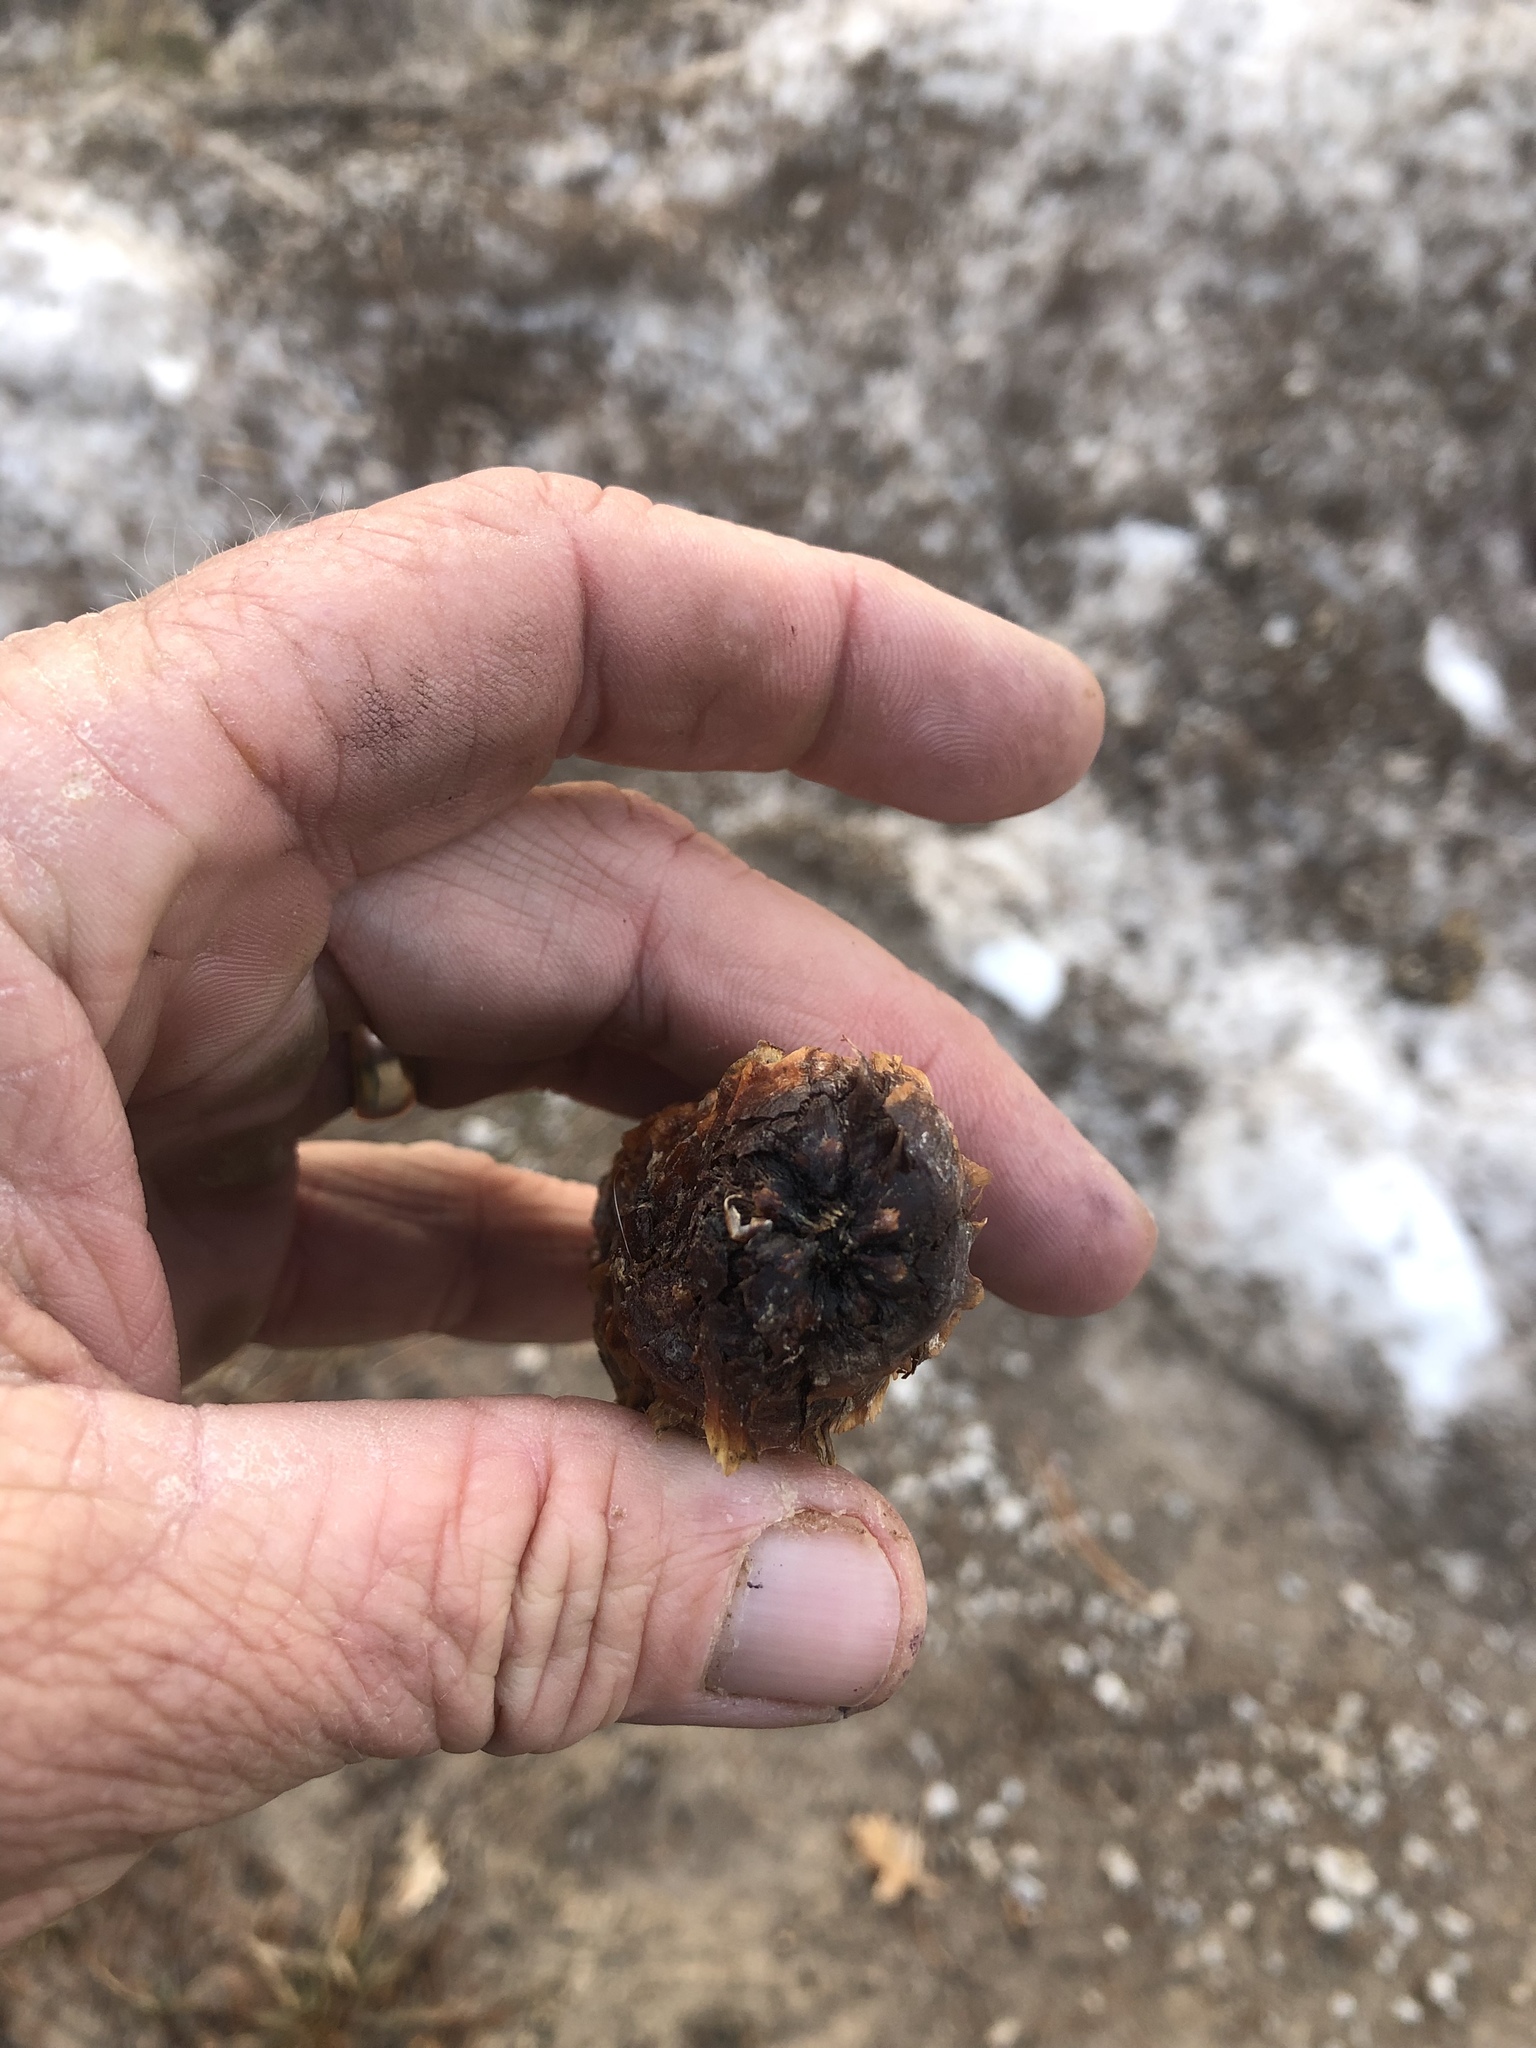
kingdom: Plantae
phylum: Tracheophyta
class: Pinopsida
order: Pinales
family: Pinaceae
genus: Picea
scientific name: Picea engelmannii
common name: Engelmann spruce
